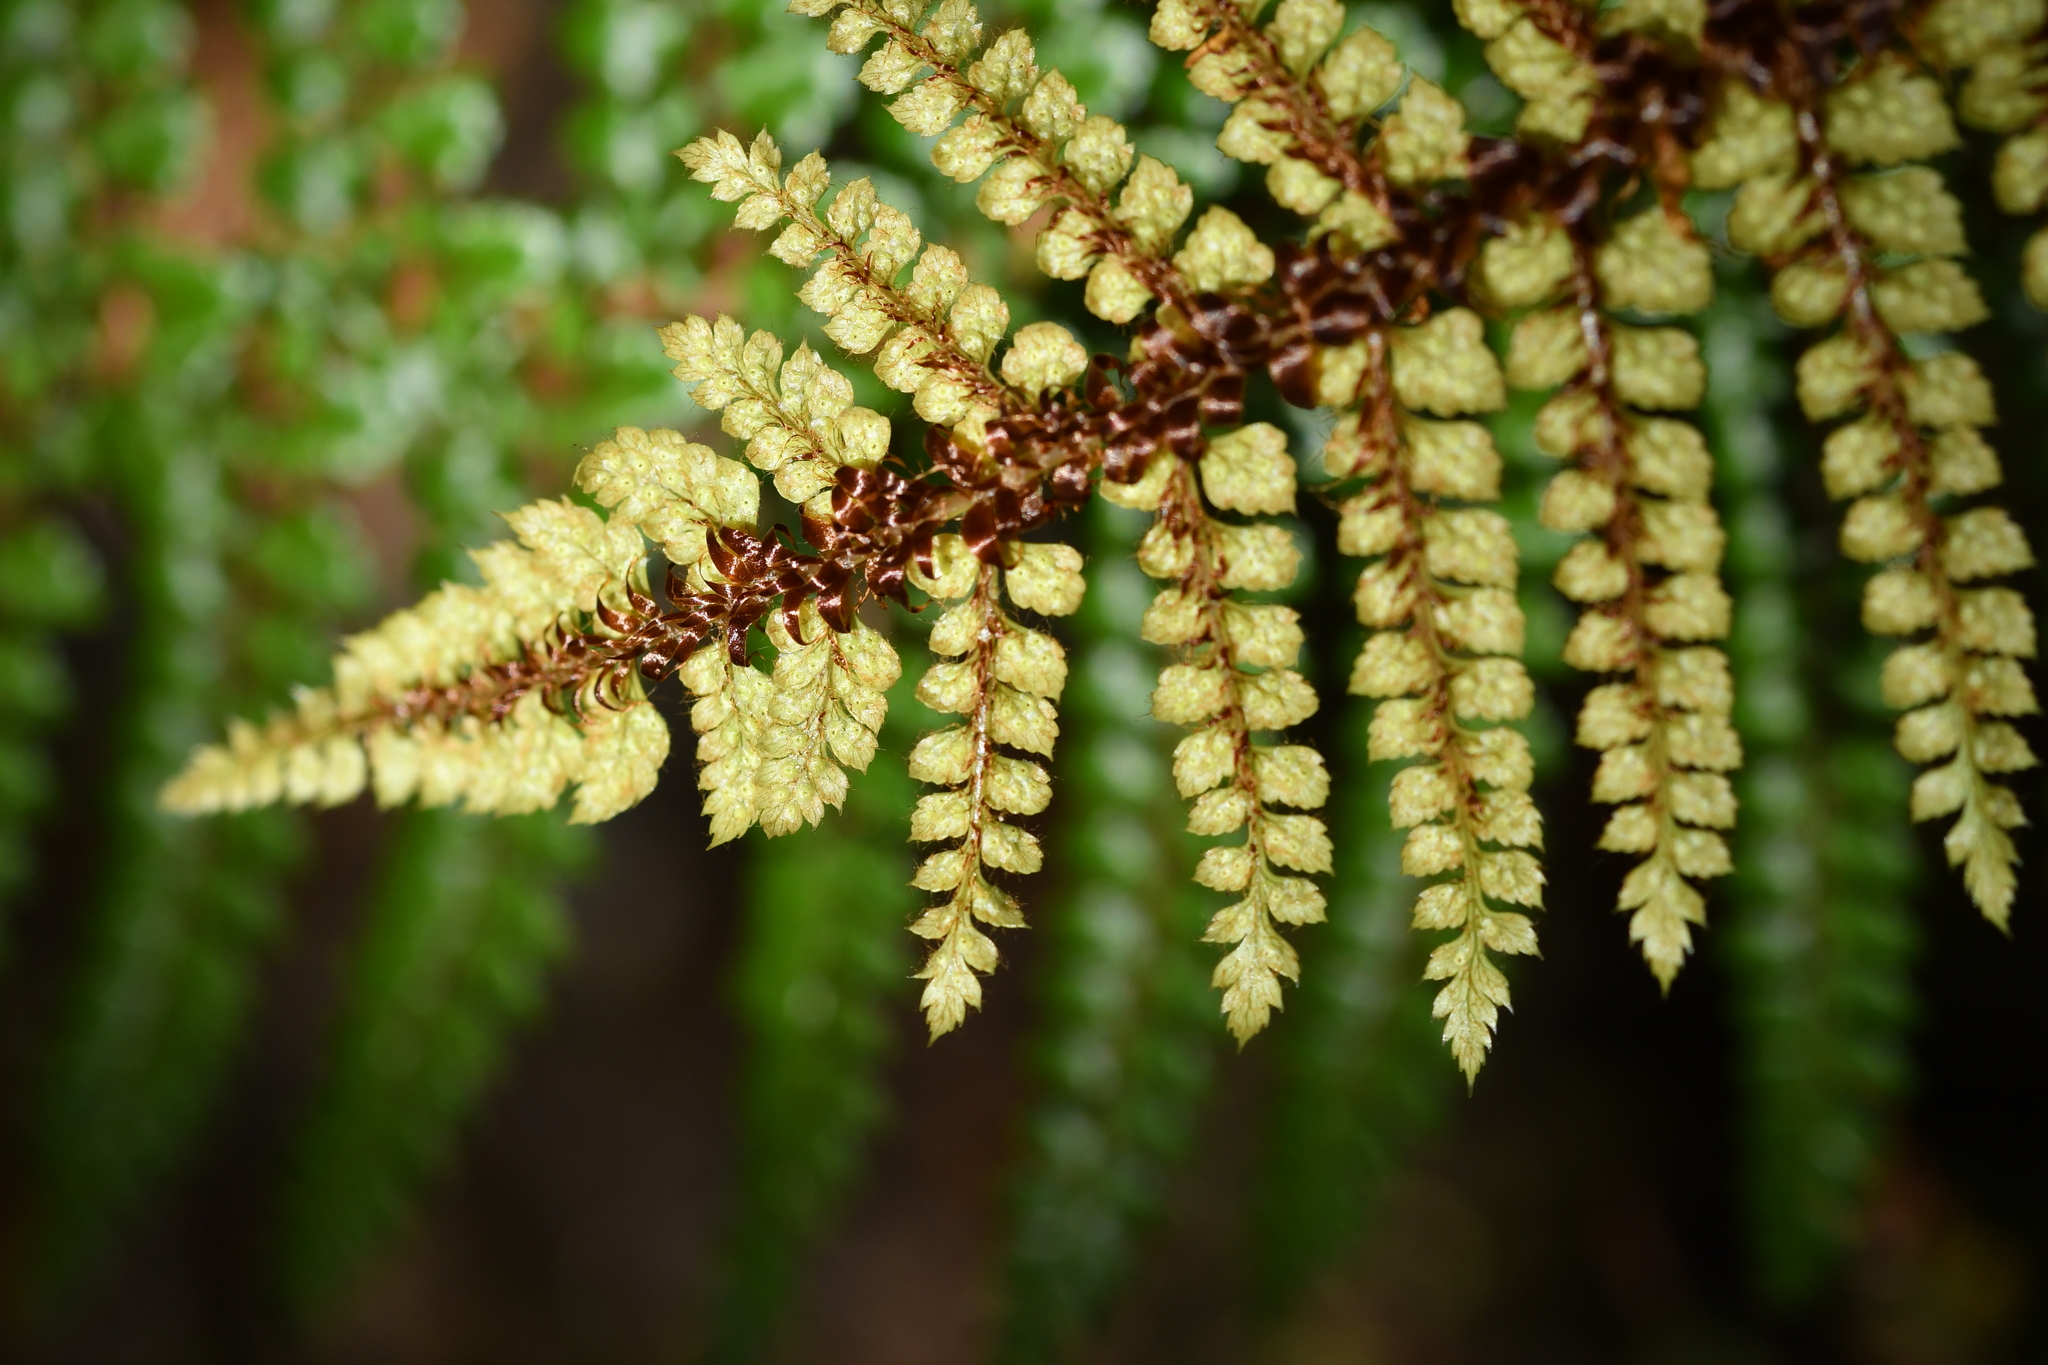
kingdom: Plantae
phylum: Tracheophyta
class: Polypodiopsida
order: Polypodiales
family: Dryopteridaceae
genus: Polystichum
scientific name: Polystichum vestitum
